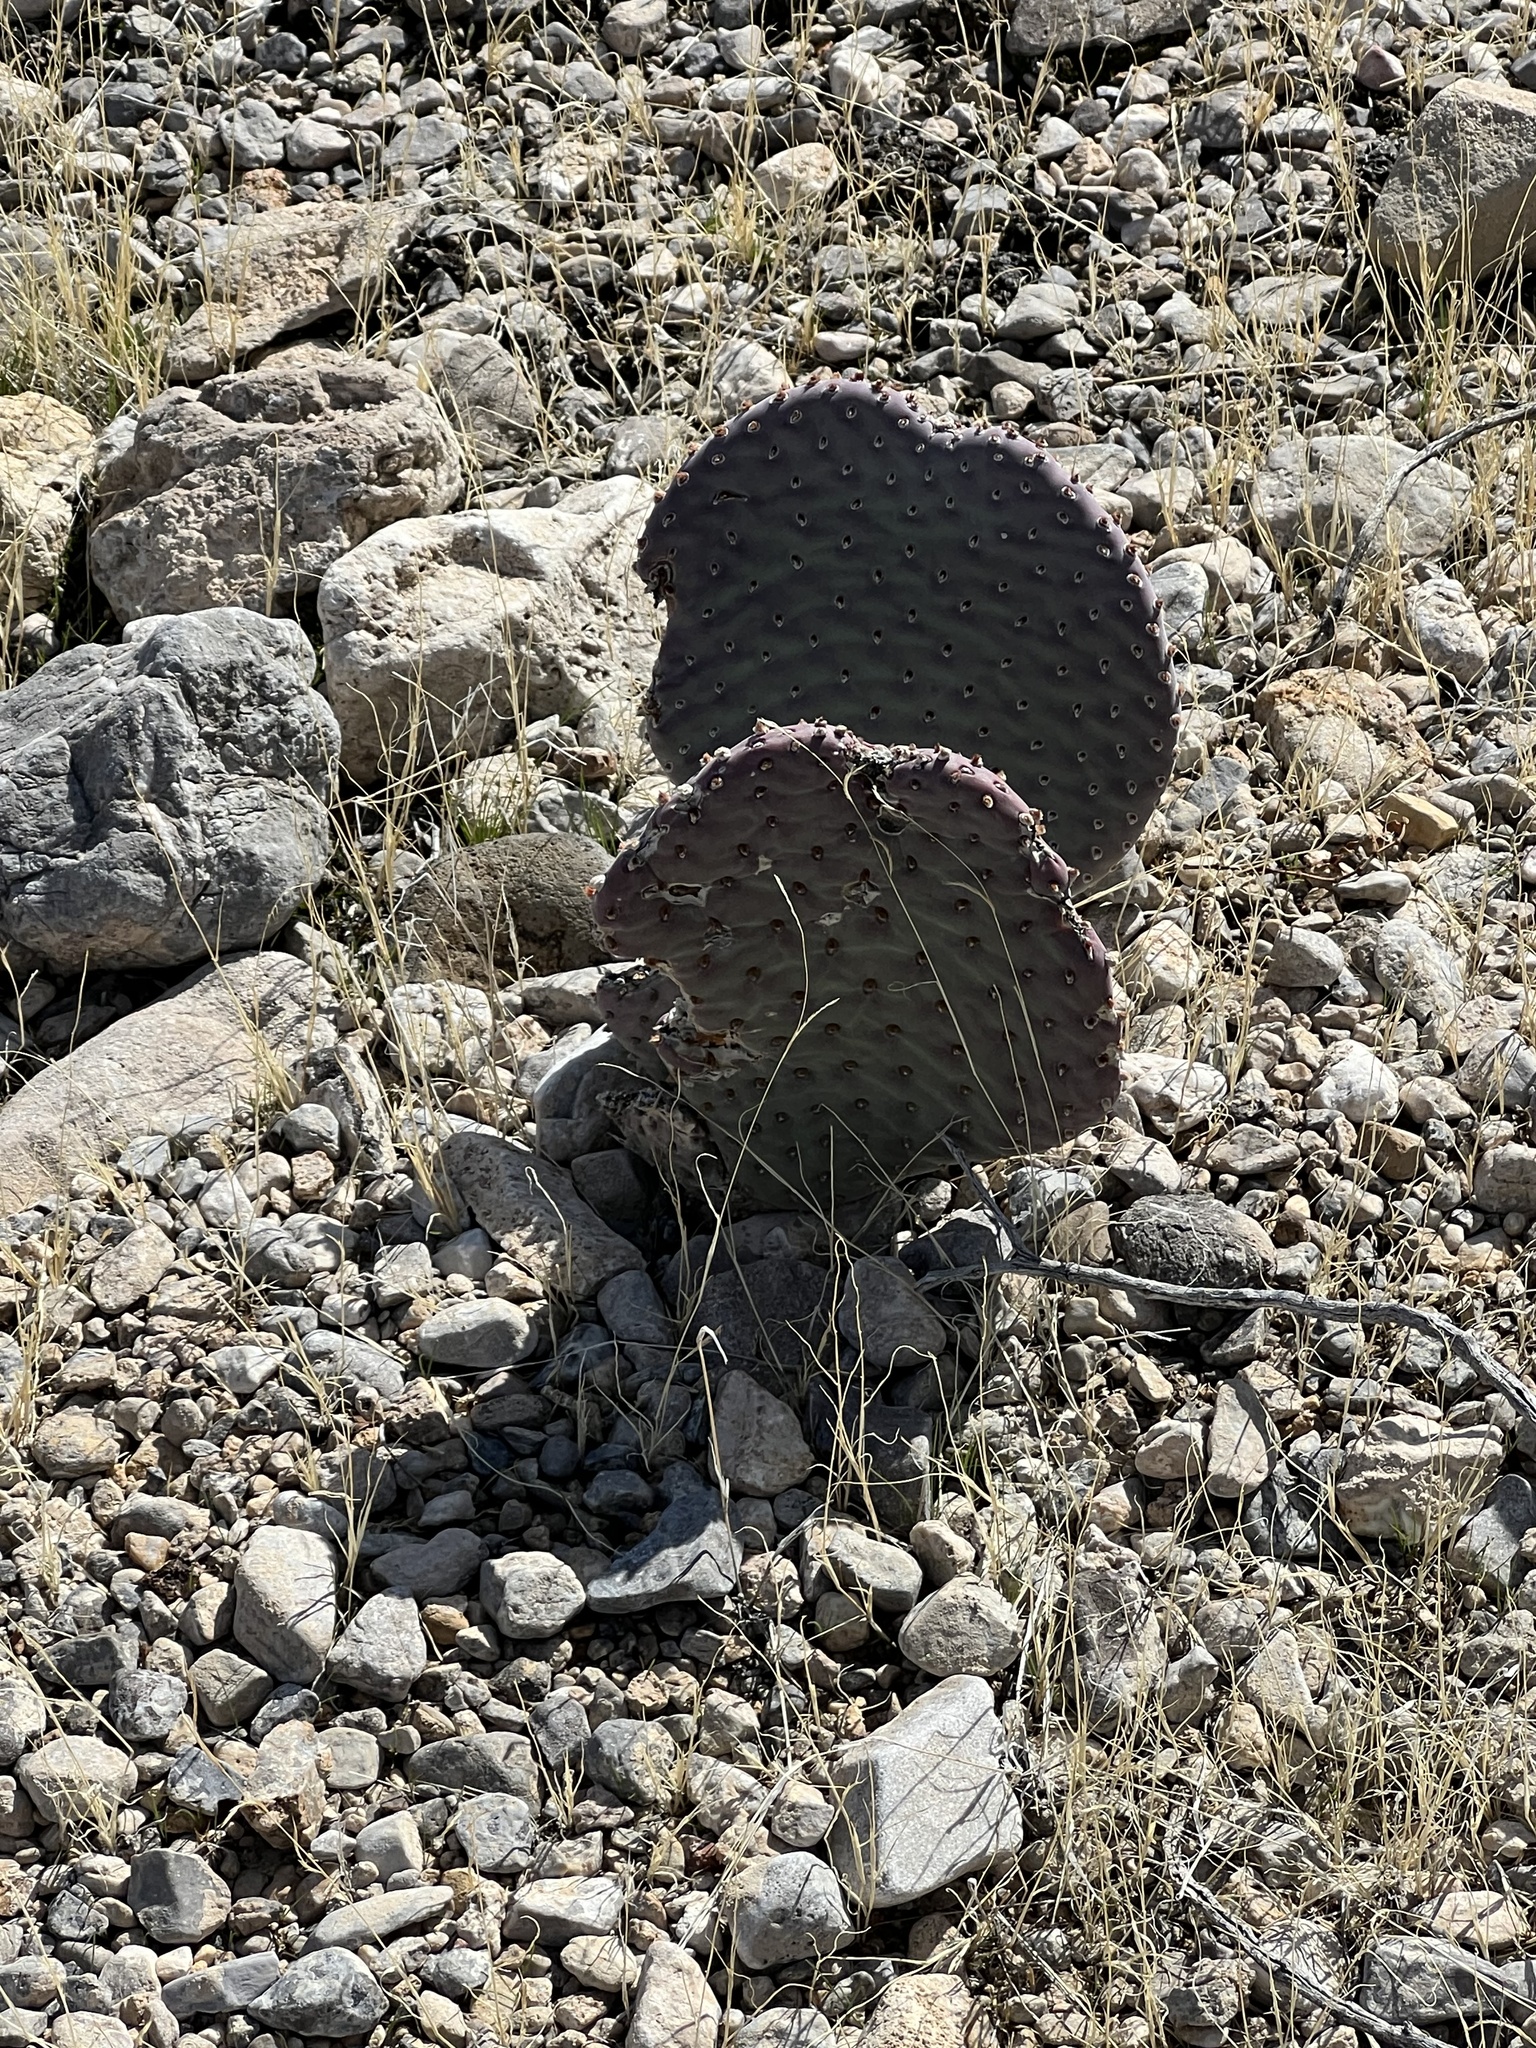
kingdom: Plantae
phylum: Tracheophyta
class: Magnoliopsida
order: Caryophyllales
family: Cactaceae
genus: Opuntia
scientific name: Opuntia basilaris
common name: Beavertail prickly-pear
